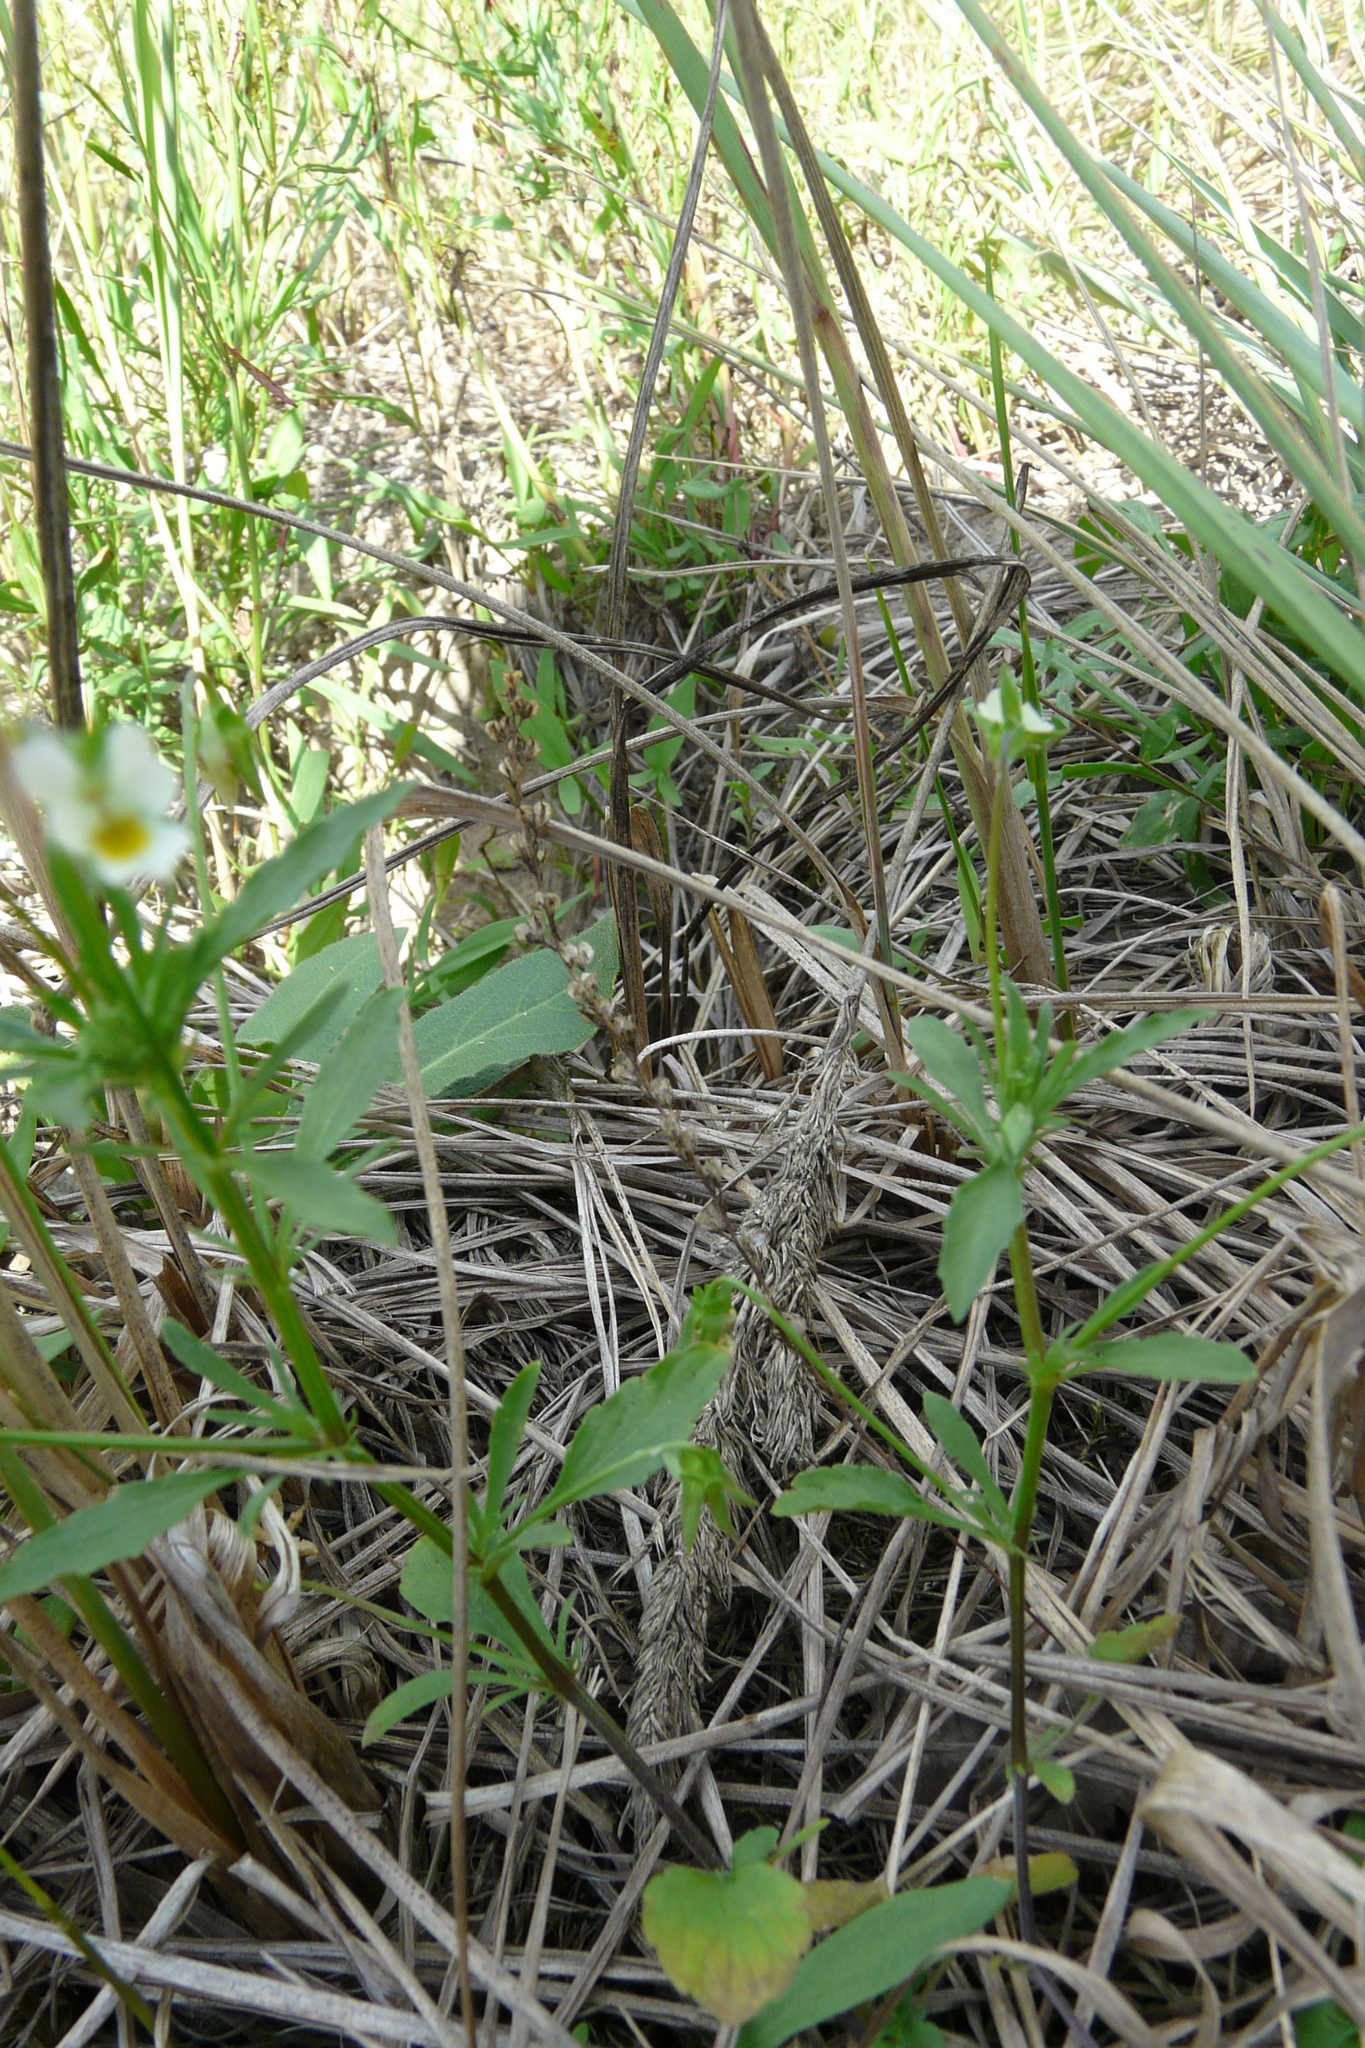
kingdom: Plantae
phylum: Tracheophyta
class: Magnoliopsida
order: Malpighiales
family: Violaceae
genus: Viola
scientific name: Viola arvensis
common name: Field pansy
